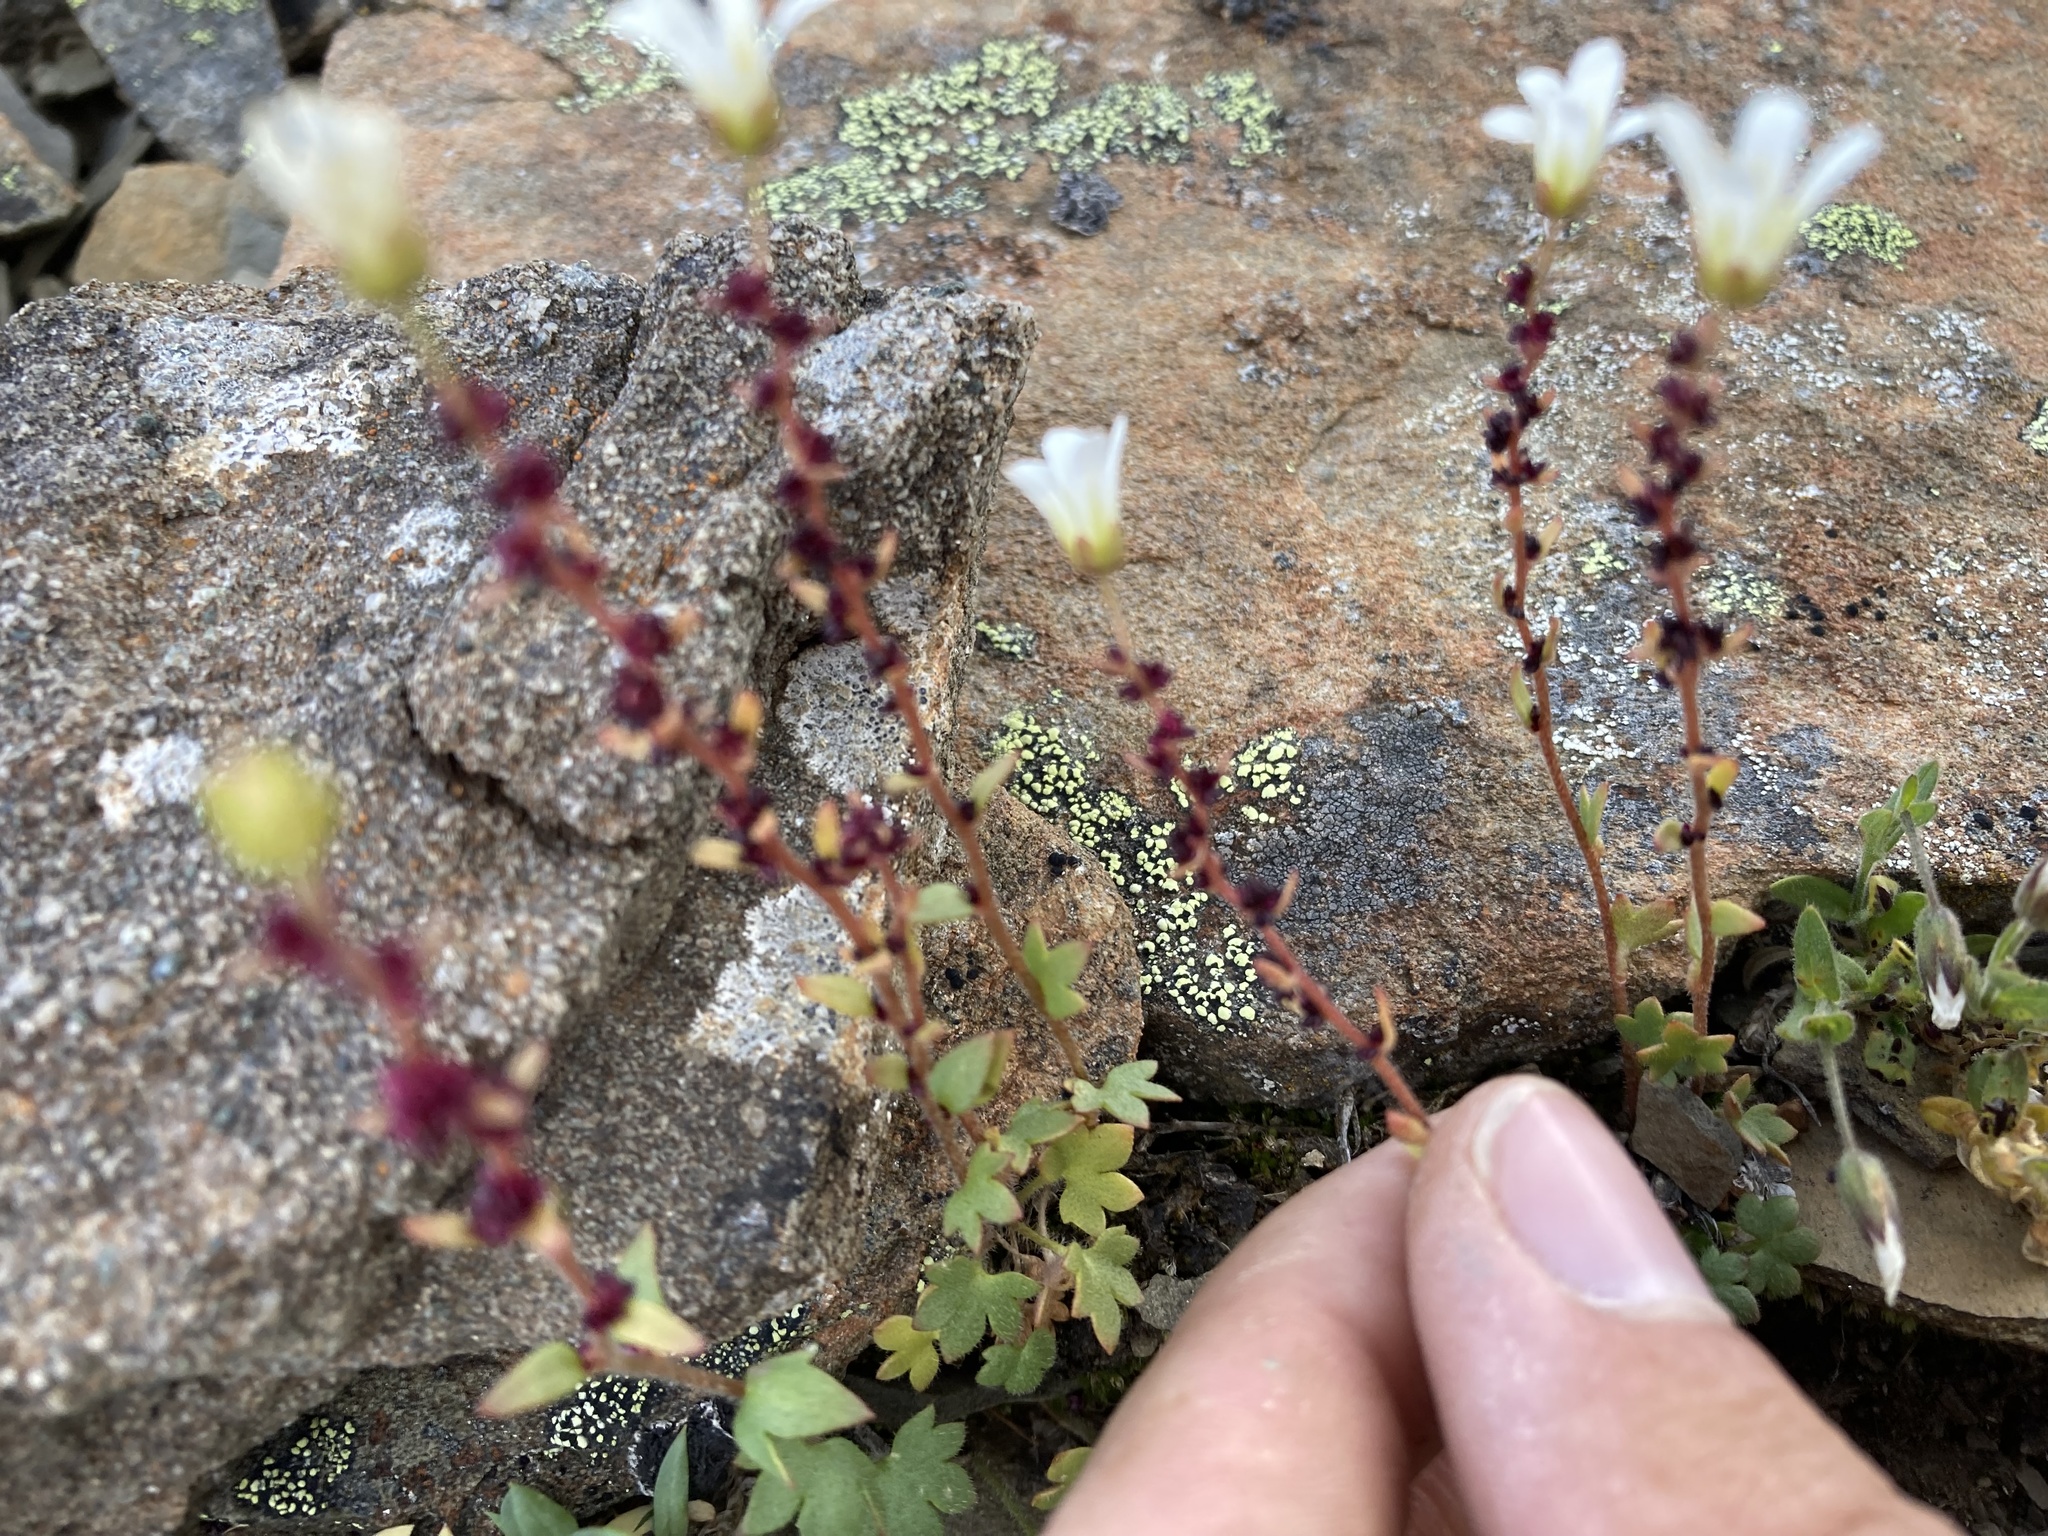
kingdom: Plantae
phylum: Tracheophyta
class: Magnoliopsida
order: Saxifragales
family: Saxifragaceae
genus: Saxifraga
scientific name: Saxifraga cernua
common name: Drooping saxifrage
